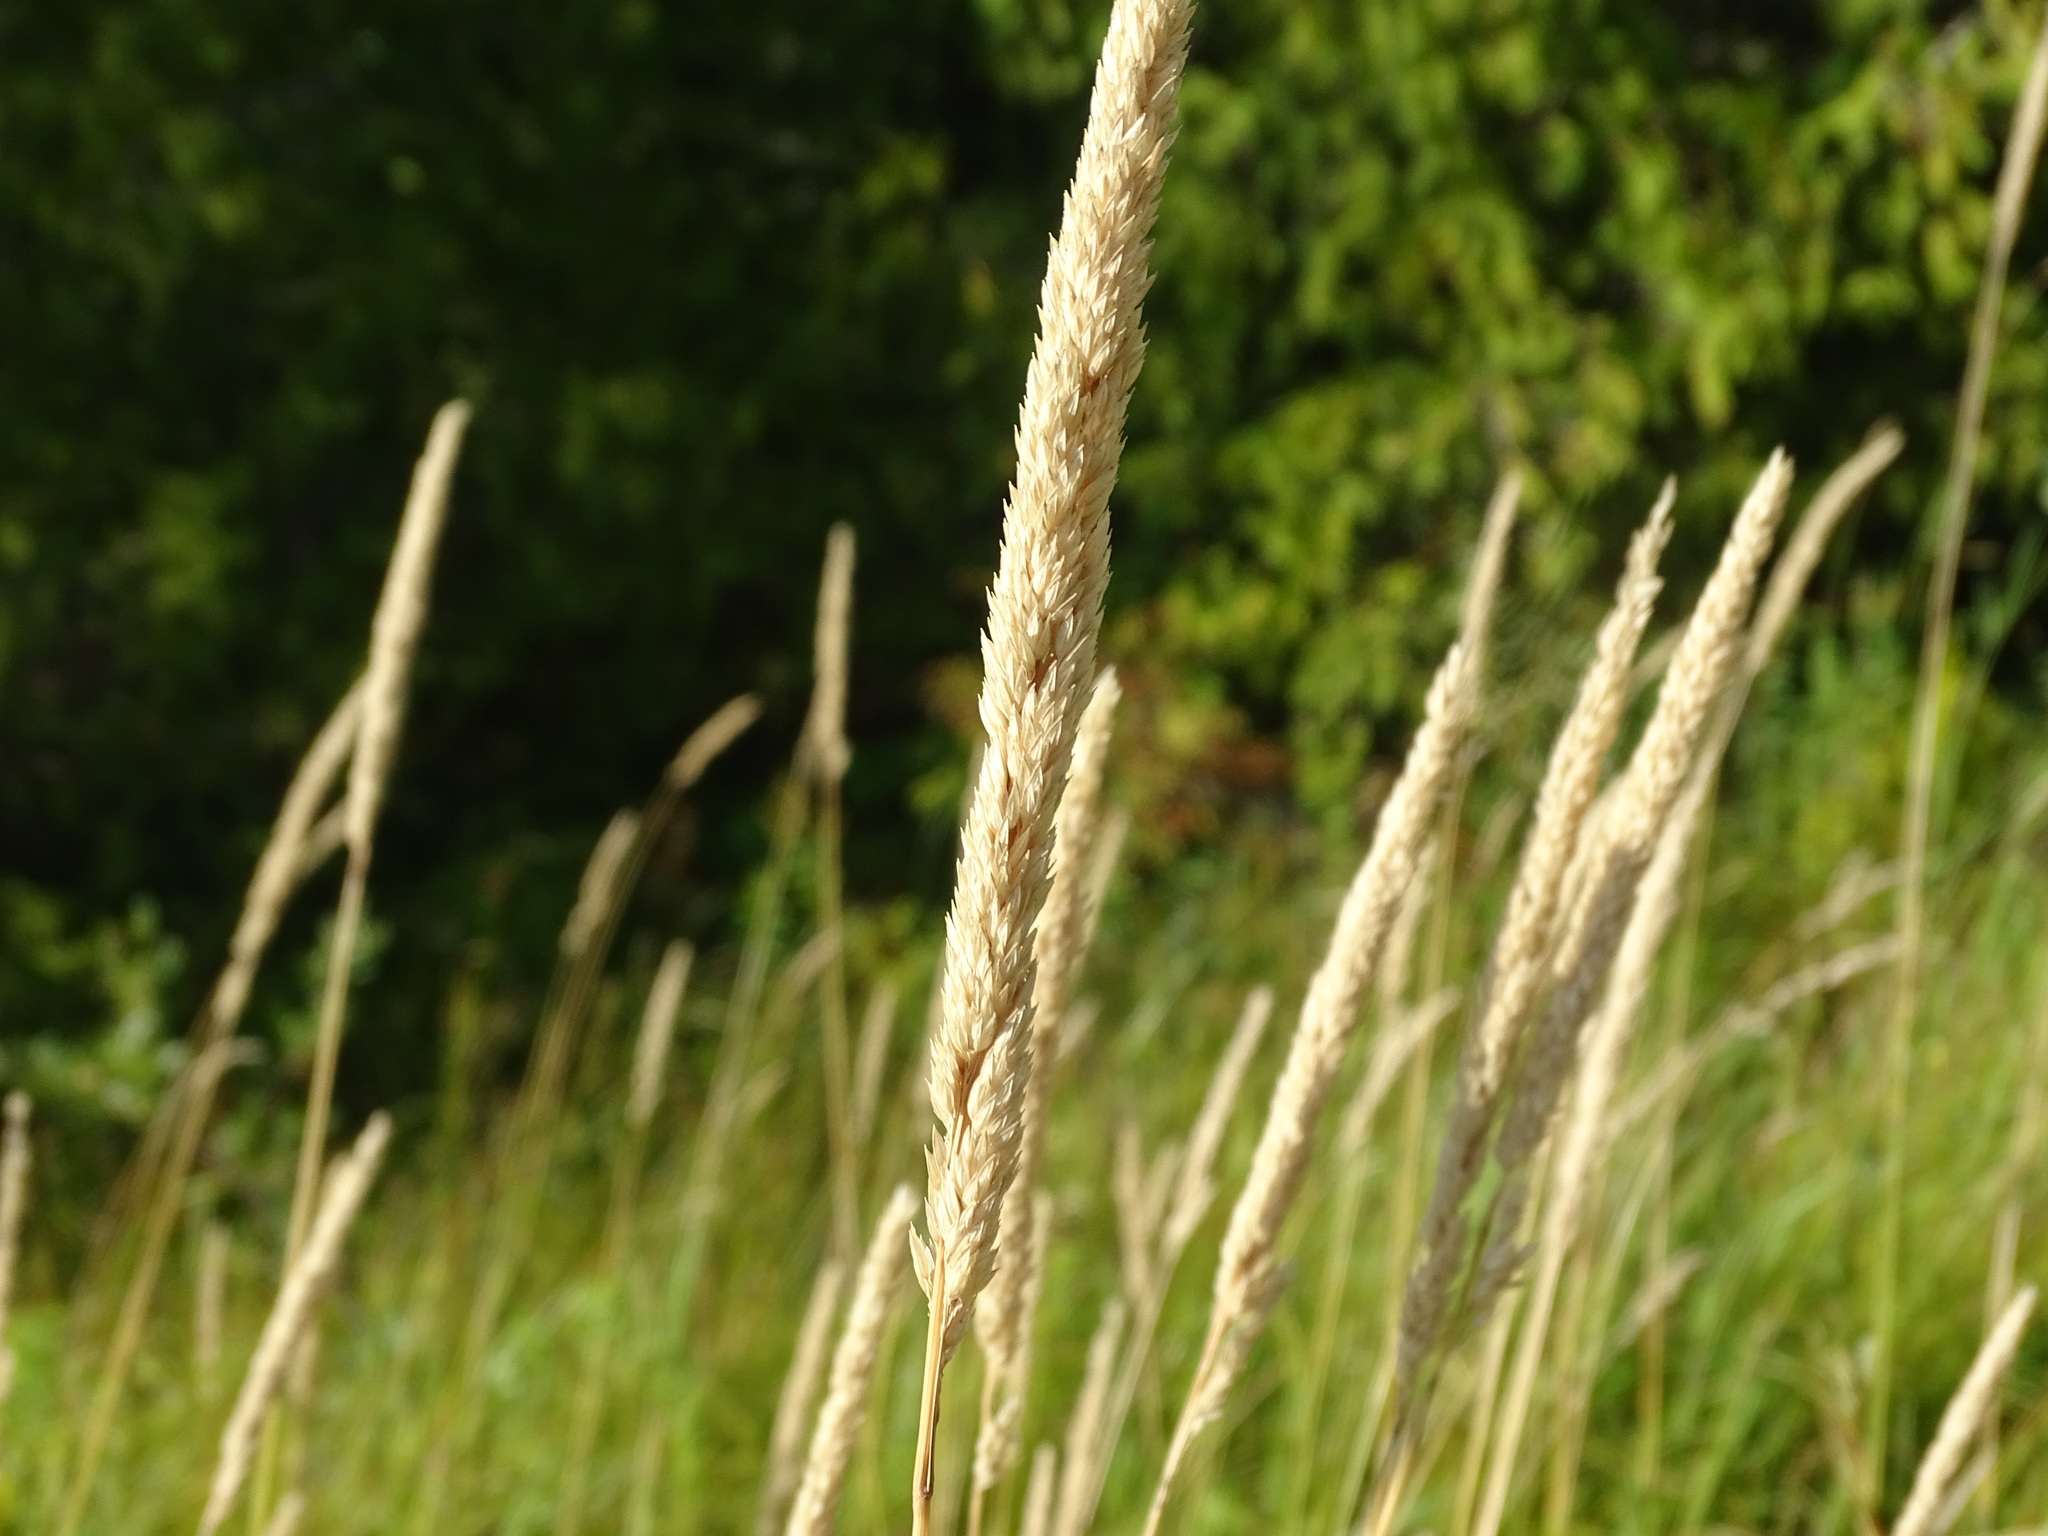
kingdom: Plantae
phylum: Tracheophyta
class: Liliopsida
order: Poales
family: Poaceae
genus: Phalaris
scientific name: Phalaris arundinacea
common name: Reed canary-grass
